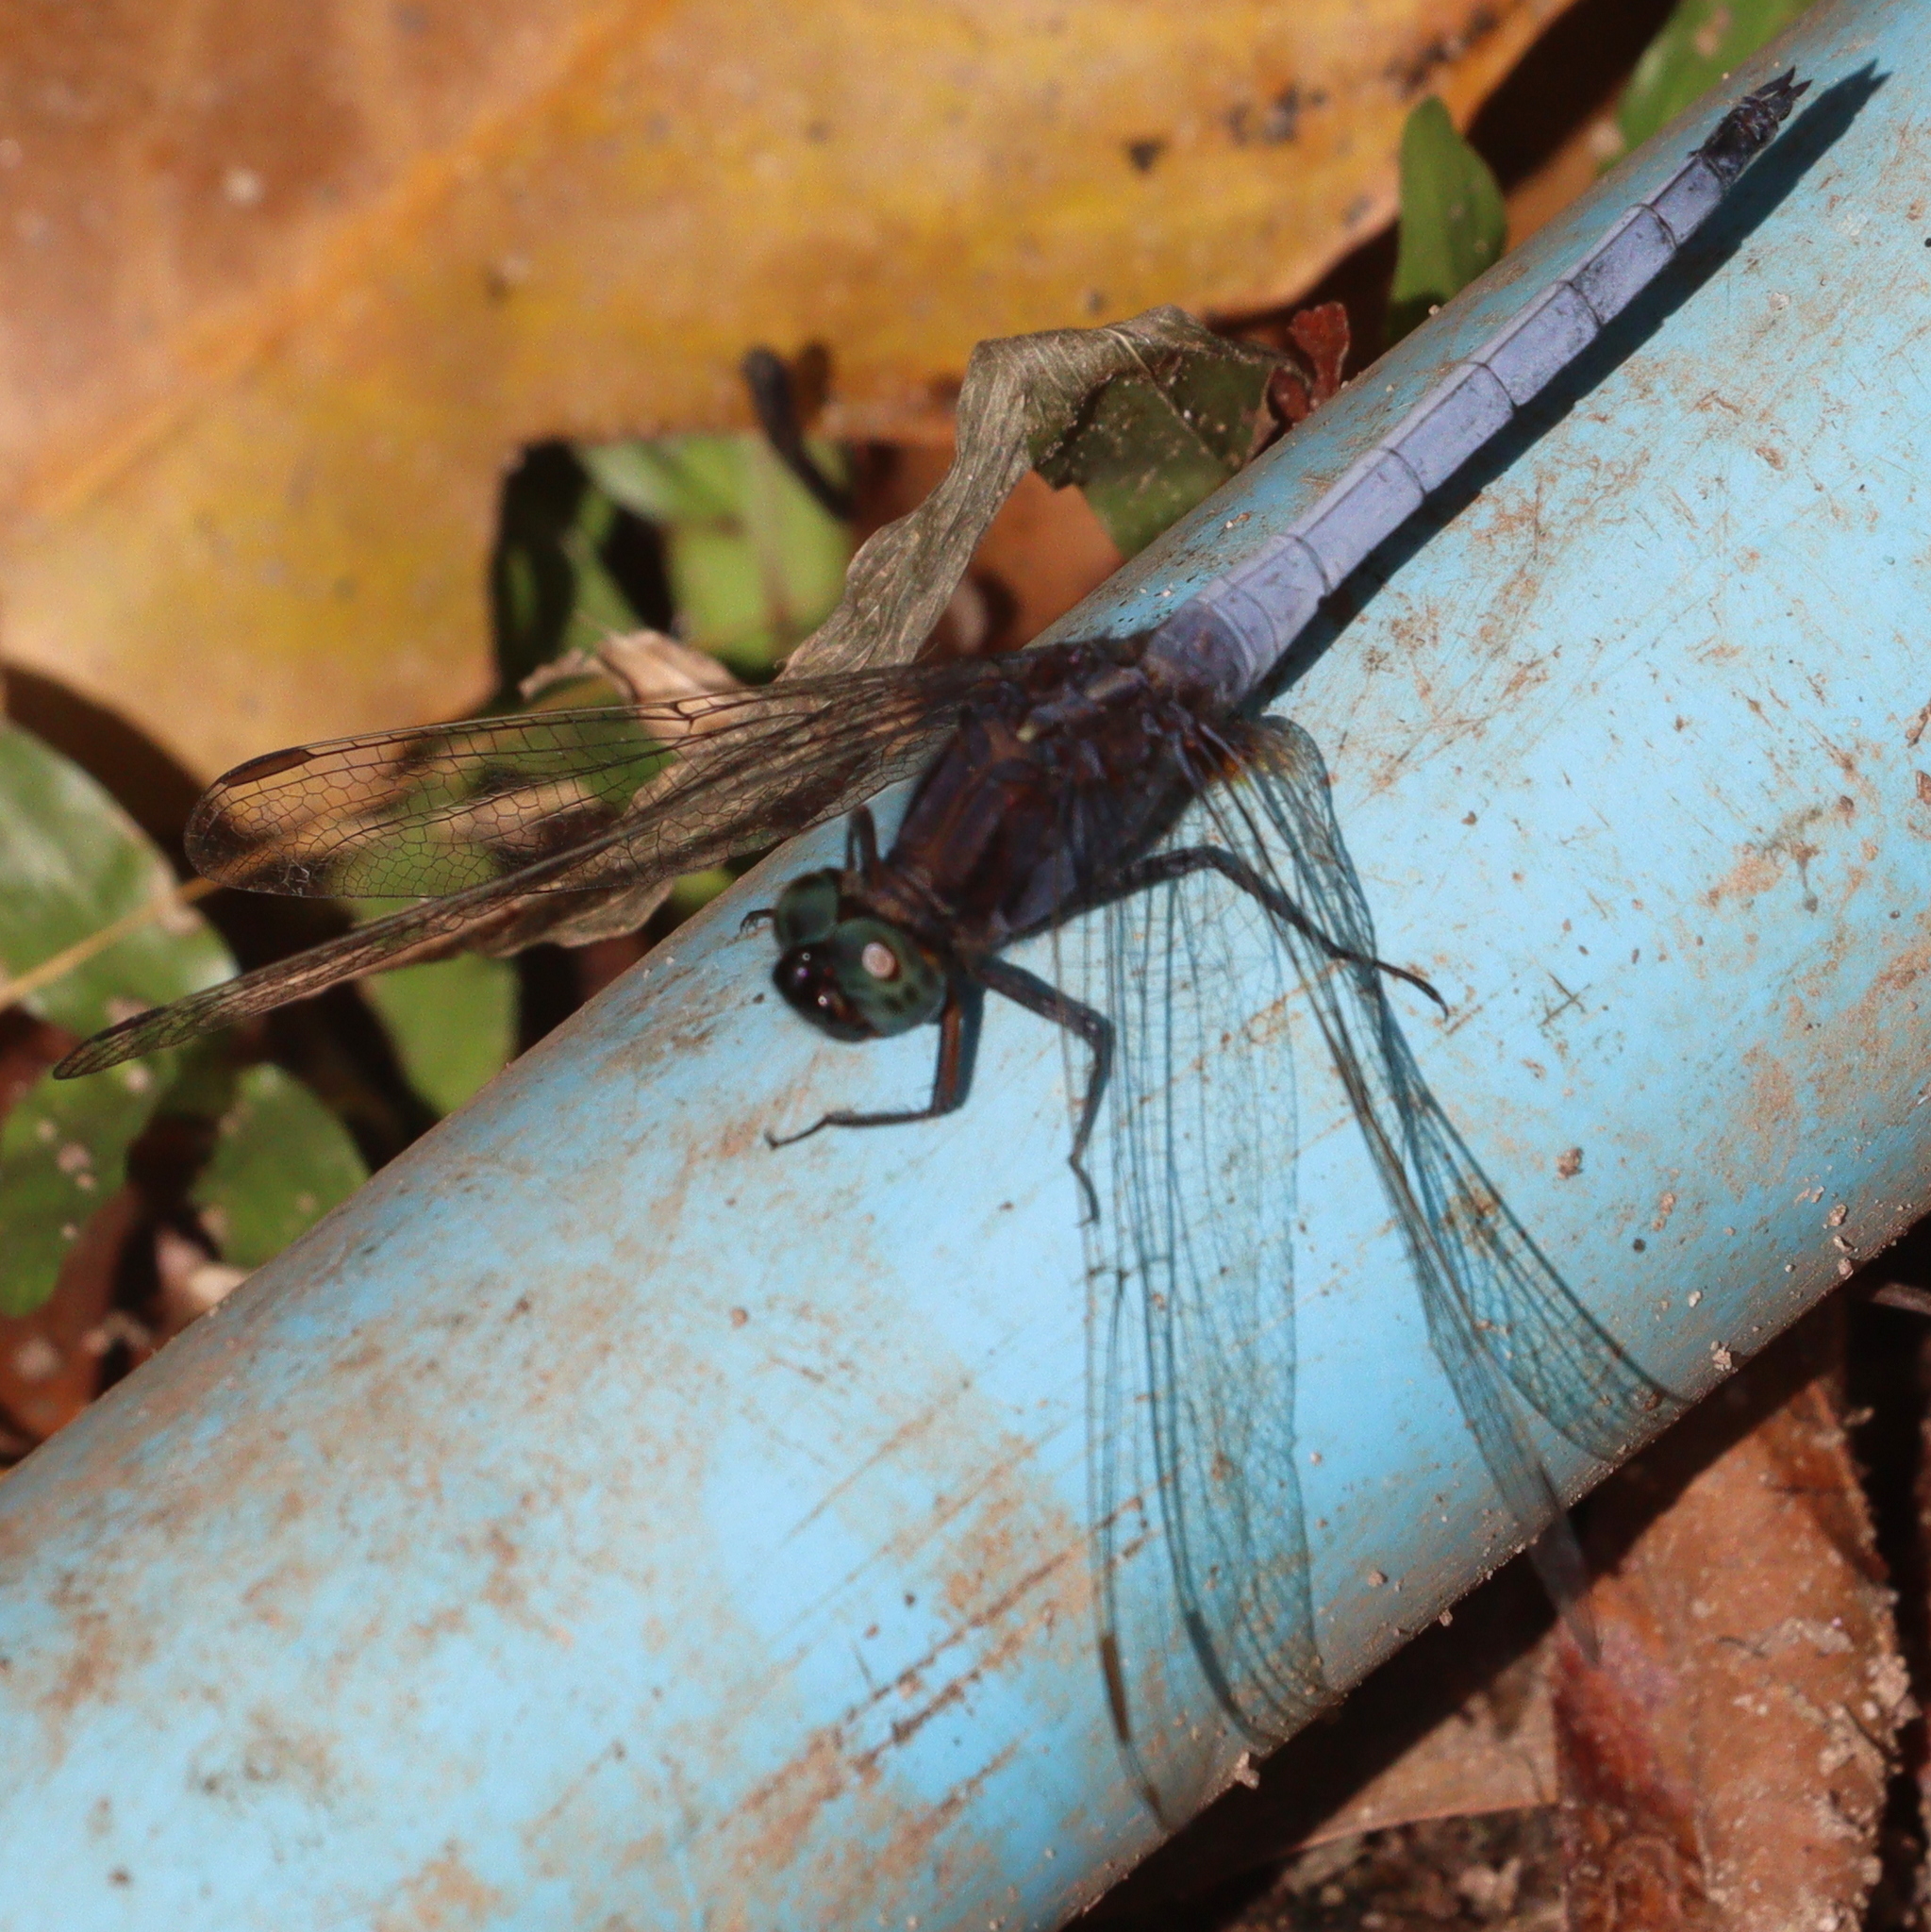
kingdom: Animalia
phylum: Arthropoda
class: Insecta
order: Odonata
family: Libellulidae
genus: Orthetrum
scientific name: Orthetrum glaucum
